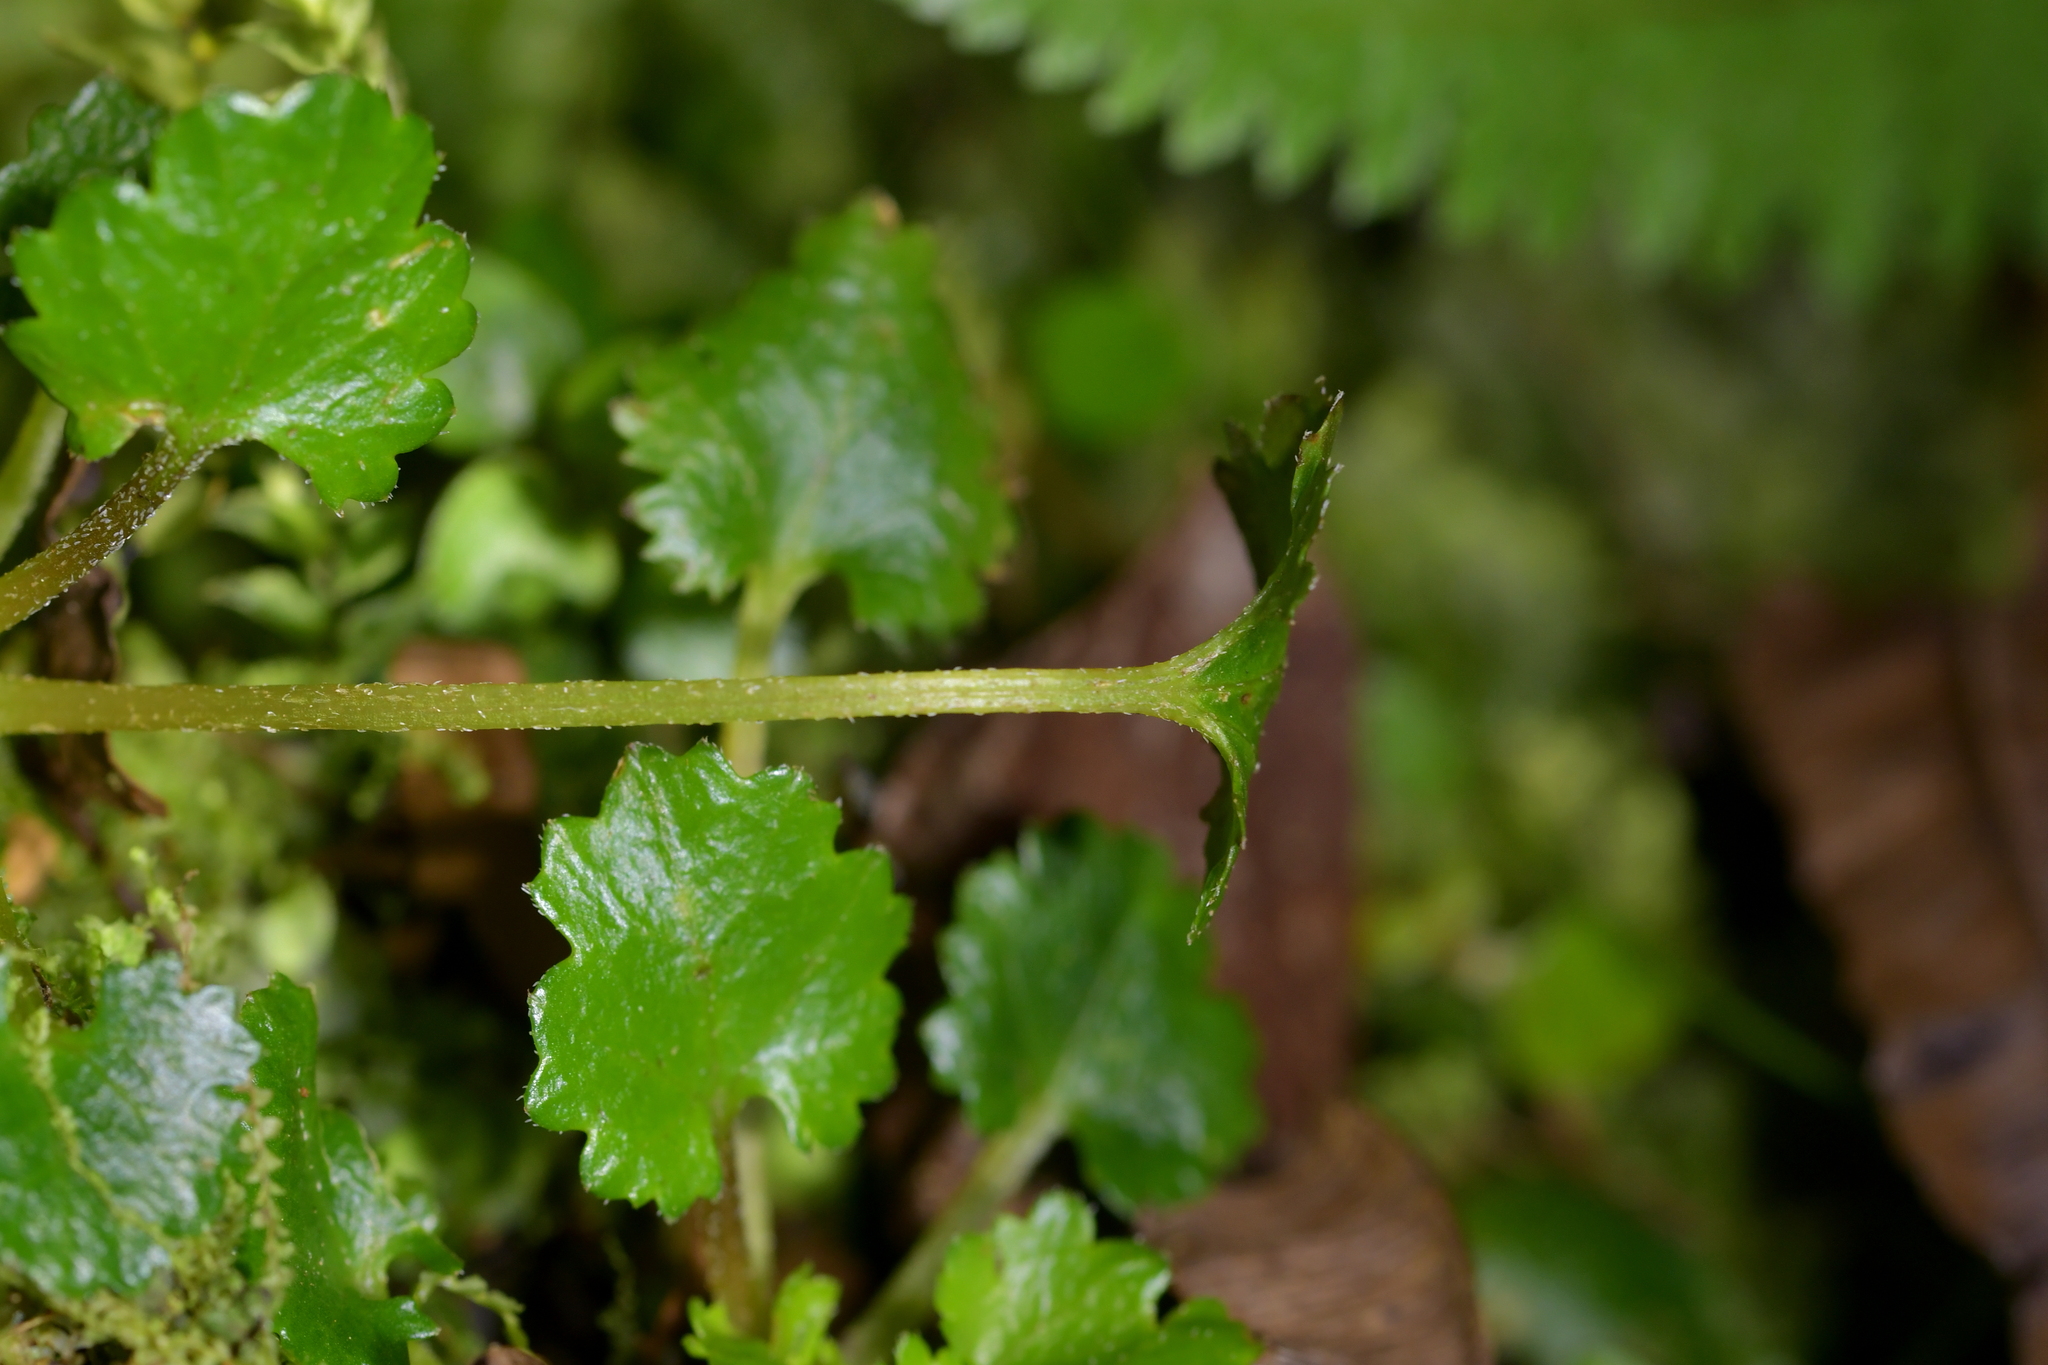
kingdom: Plantae
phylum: Tracheophyta
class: Magnoliopsida
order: Gunnerales
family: Gunneraceae
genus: Gunnera
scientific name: Gunnera monoica
